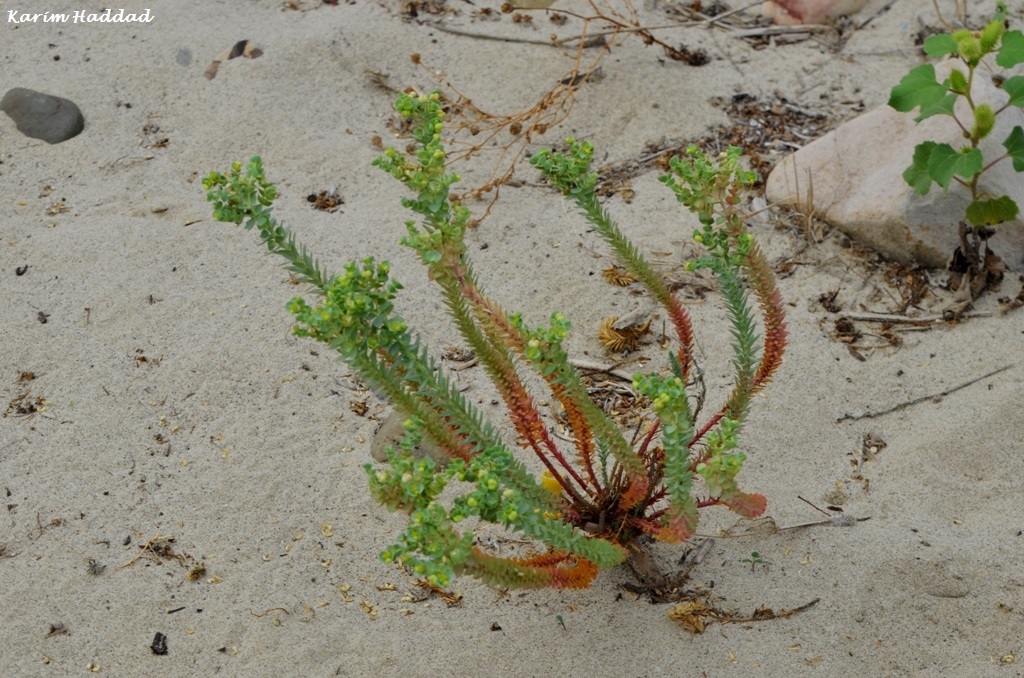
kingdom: Plantae
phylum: Tracheophyta
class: Magnoliopsida
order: Malpighiales
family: Euphorbiaceae
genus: Euphorbia
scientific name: Euphorbia paralias
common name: Sea spurge
